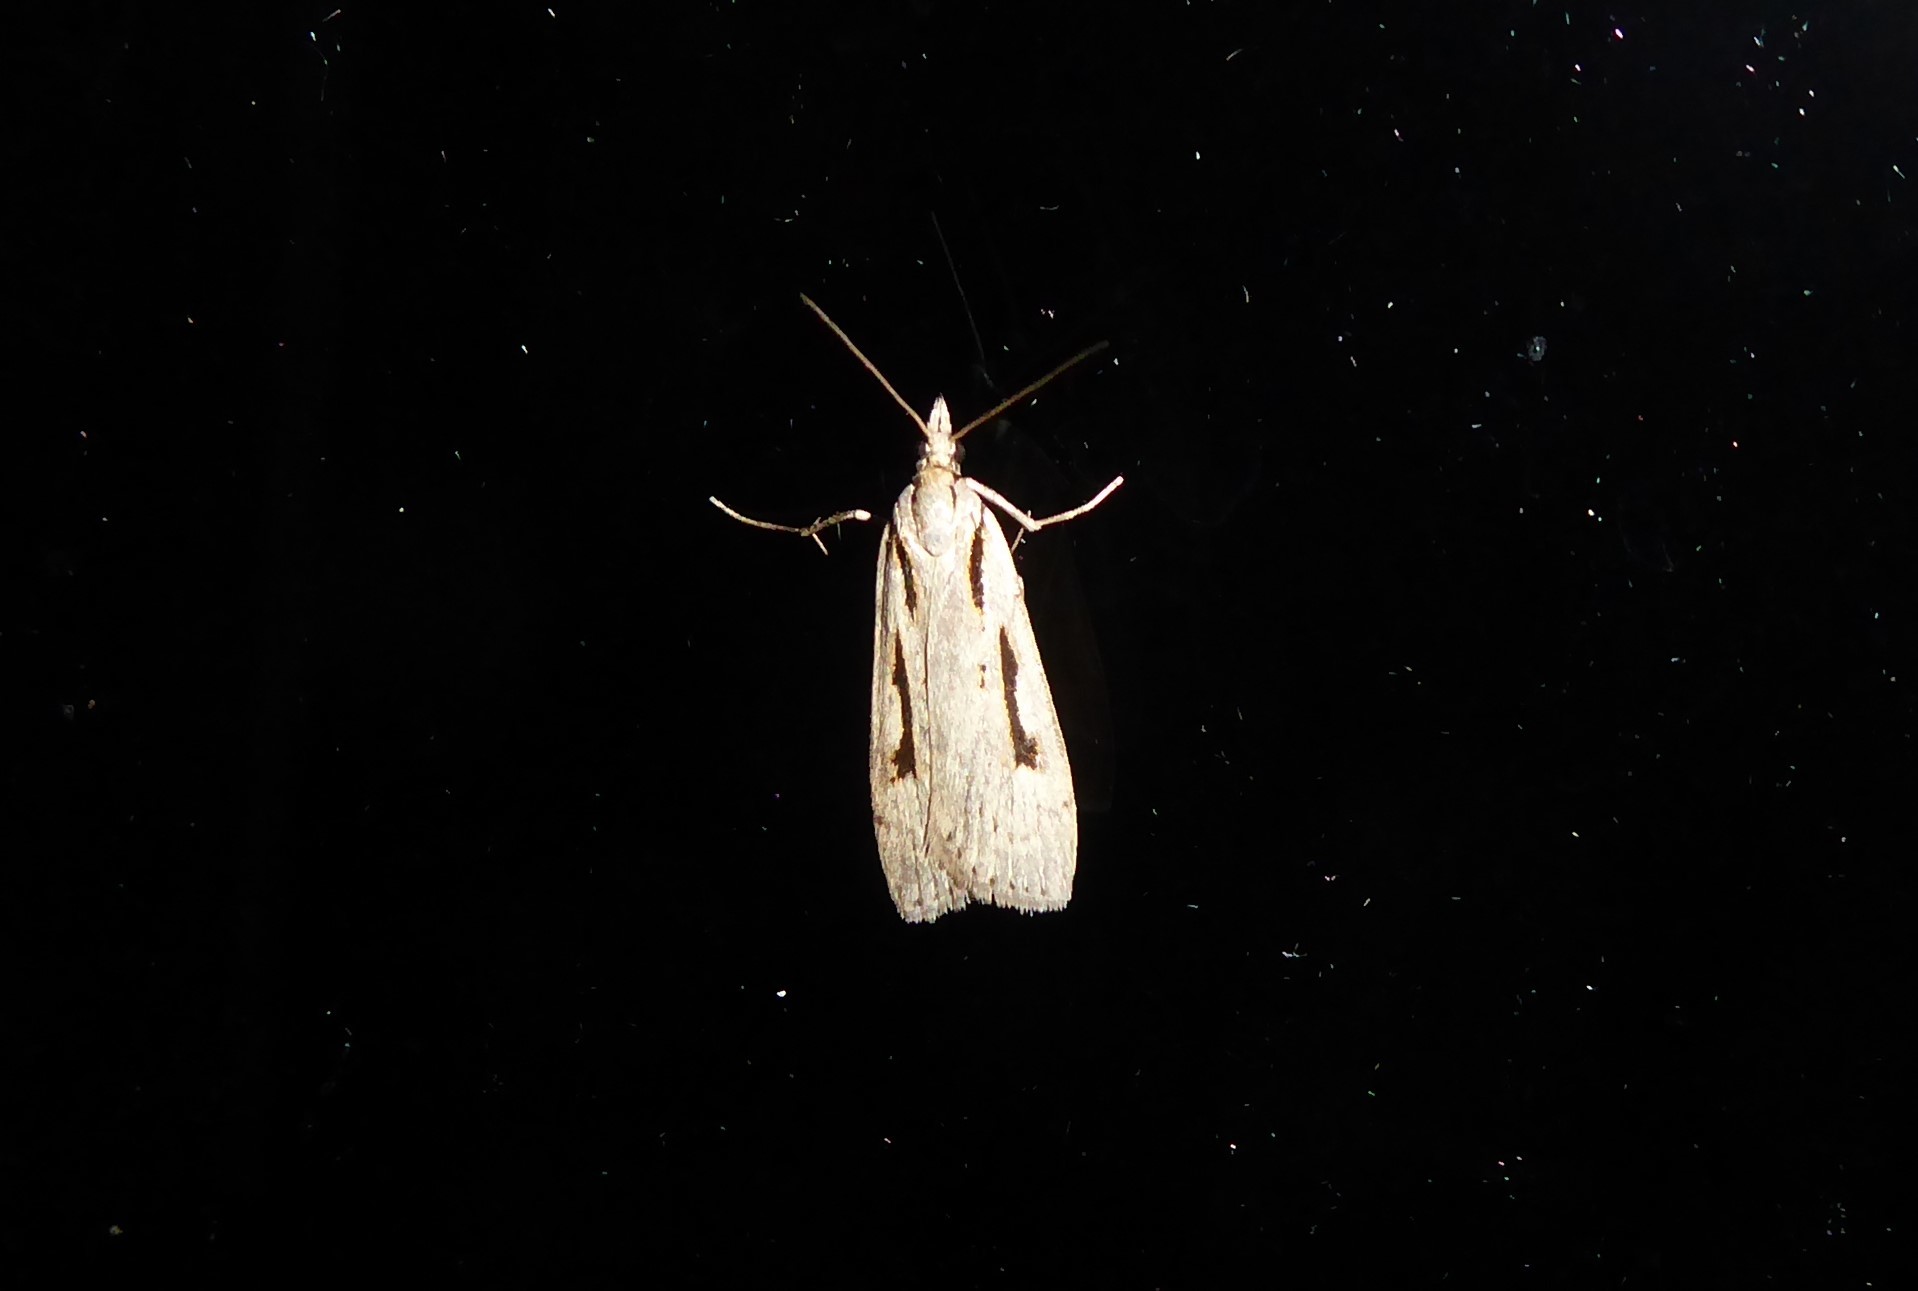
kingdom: Animalia
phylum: Arthropoda
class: Insecta
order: Lepidoptera
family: Crambidae
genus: Scoparia
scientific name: Scoparia rotuellus
